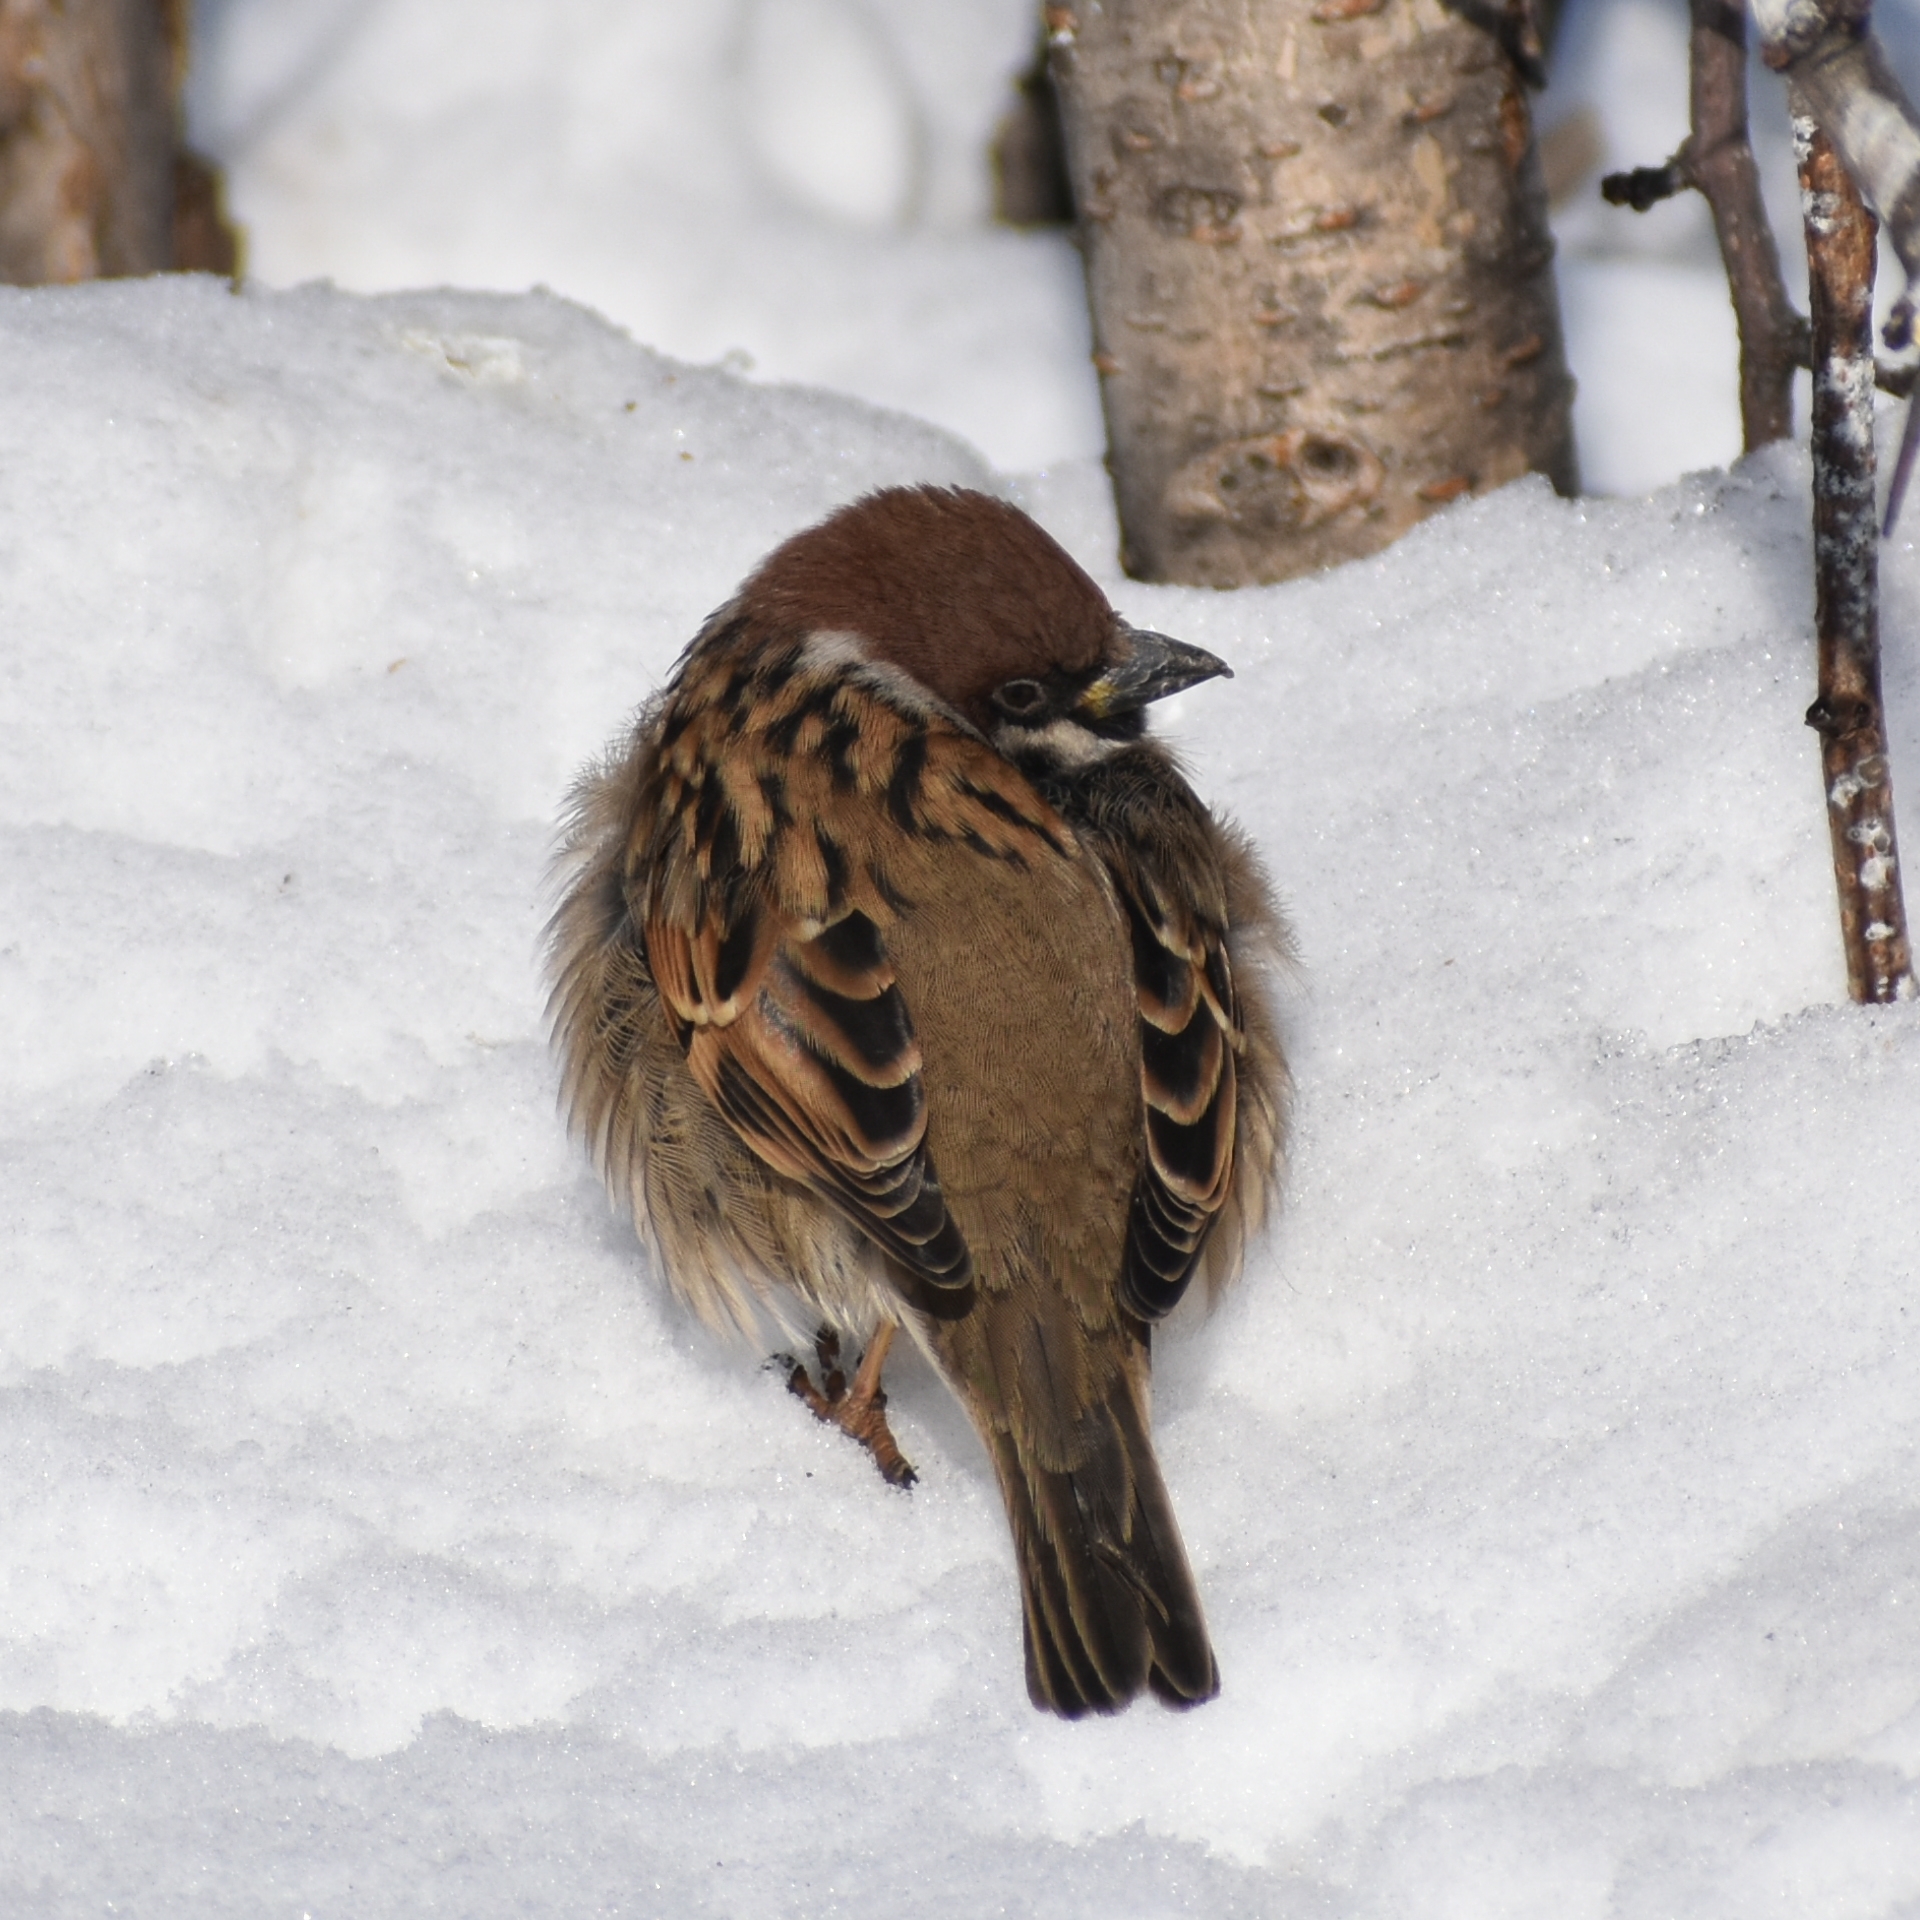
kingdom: Animalia
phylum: Chordata
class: Aves
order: Passeriformes
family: Passeridae
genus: Passer
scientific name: Passer montanus
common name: Eurasian tree sparrow
